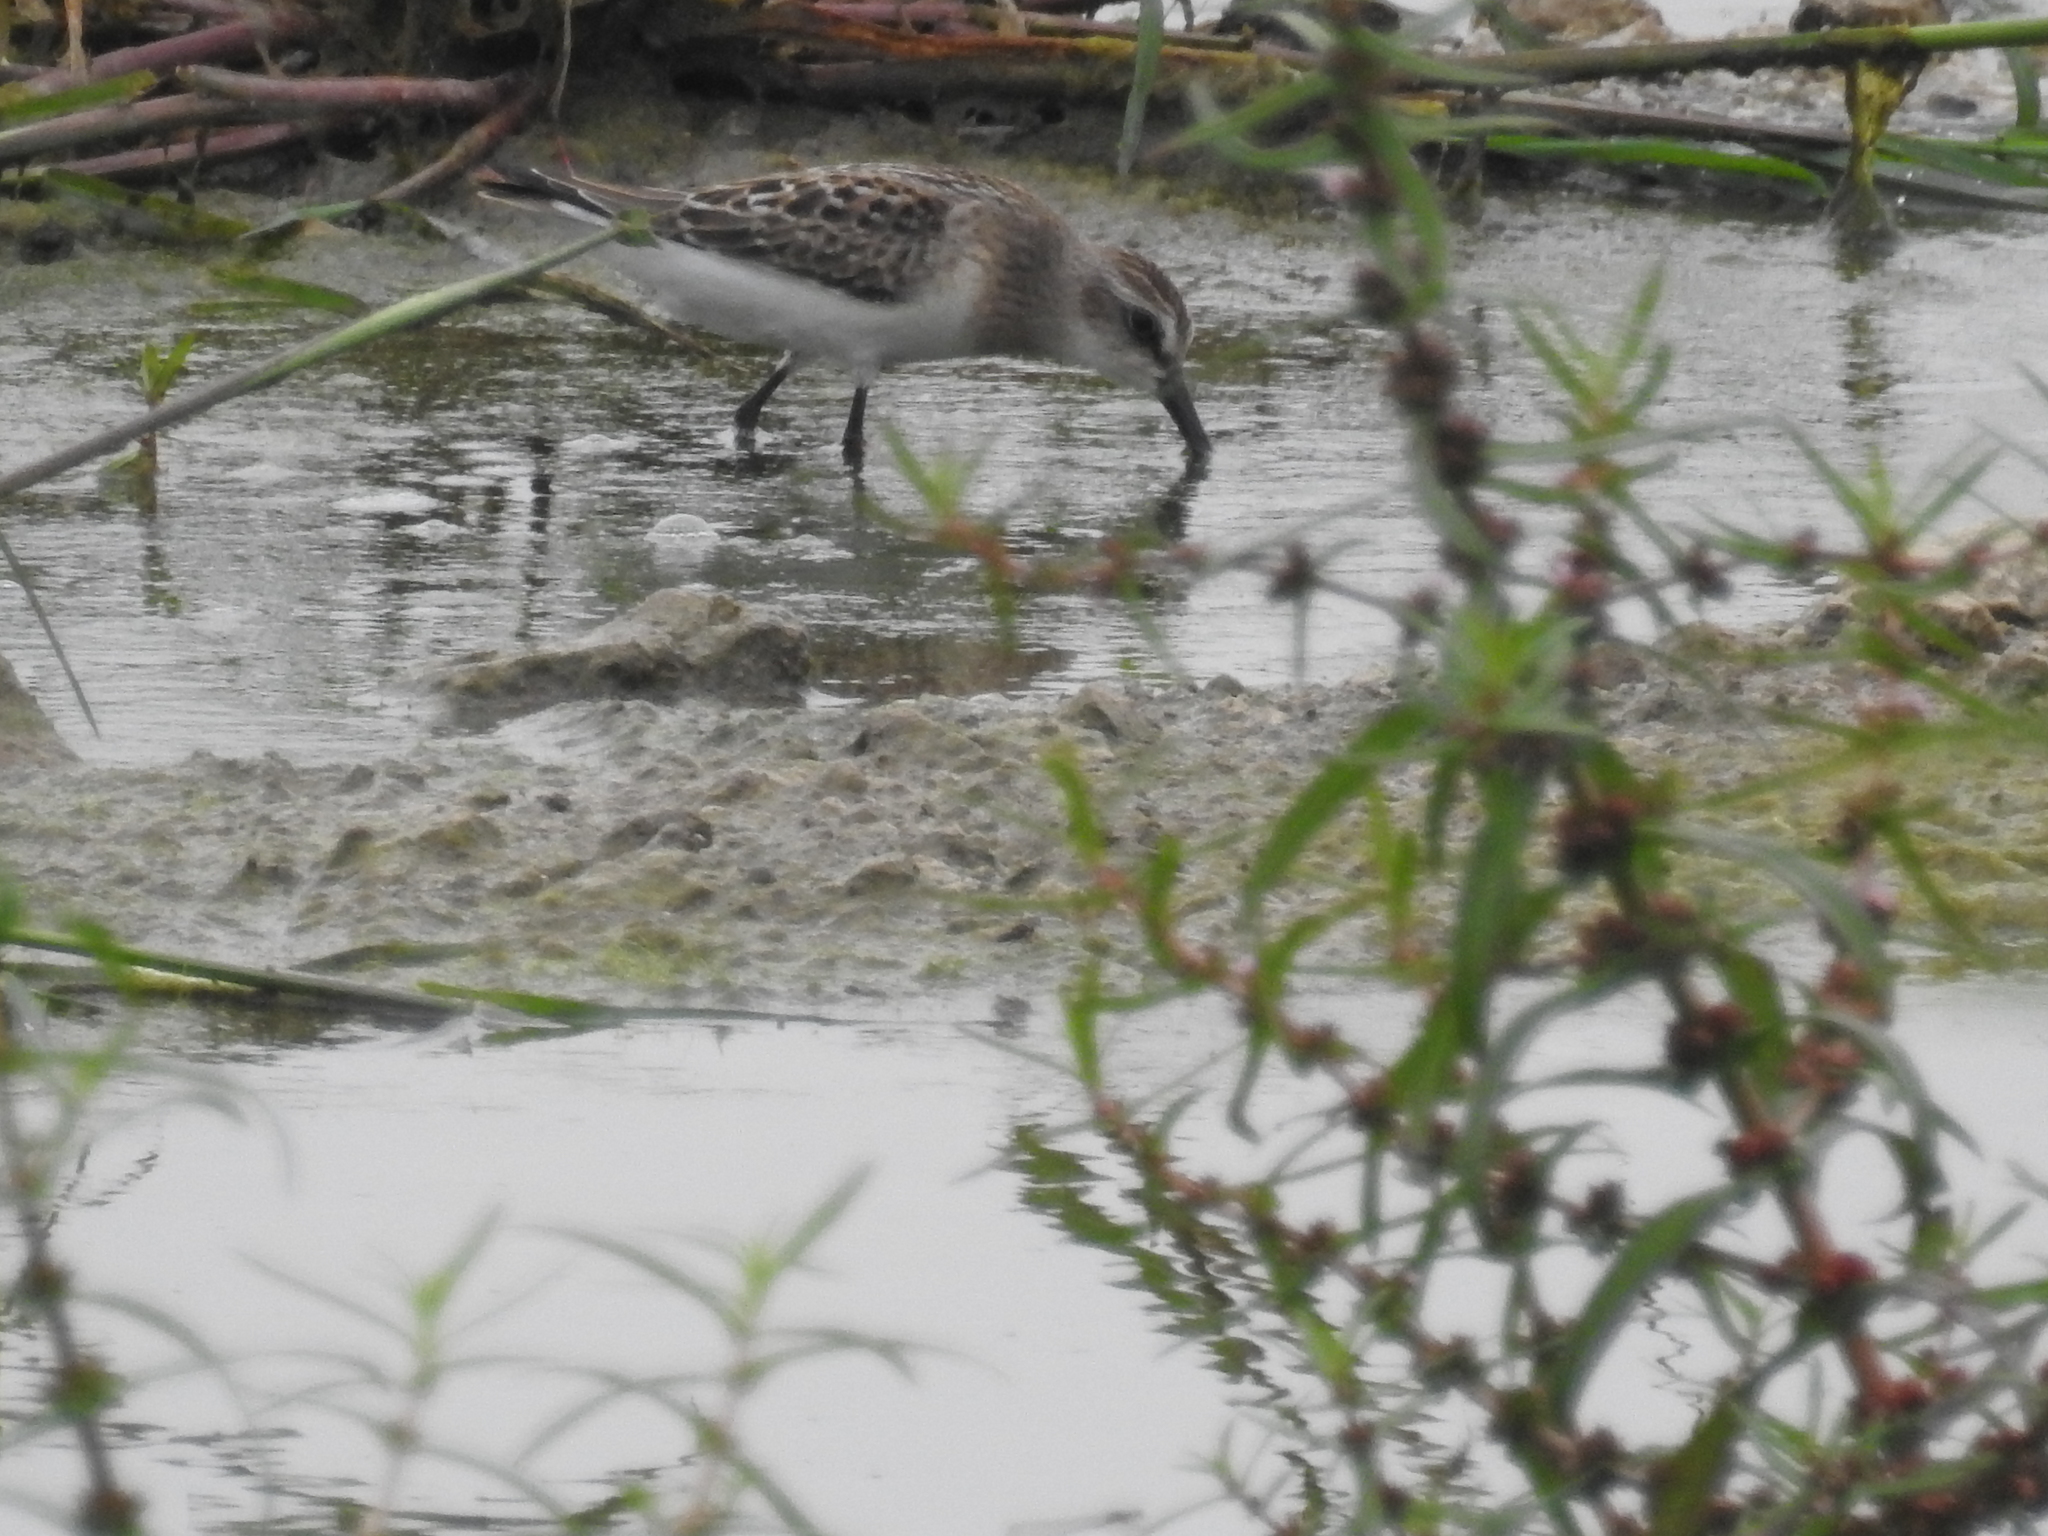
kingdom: Animalia
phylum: Chordata
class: Aves
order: Charadriiformes
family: Scolopacidae
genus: Calidris
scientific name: Calidris pusilla
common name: Semipalmated sandpiper
